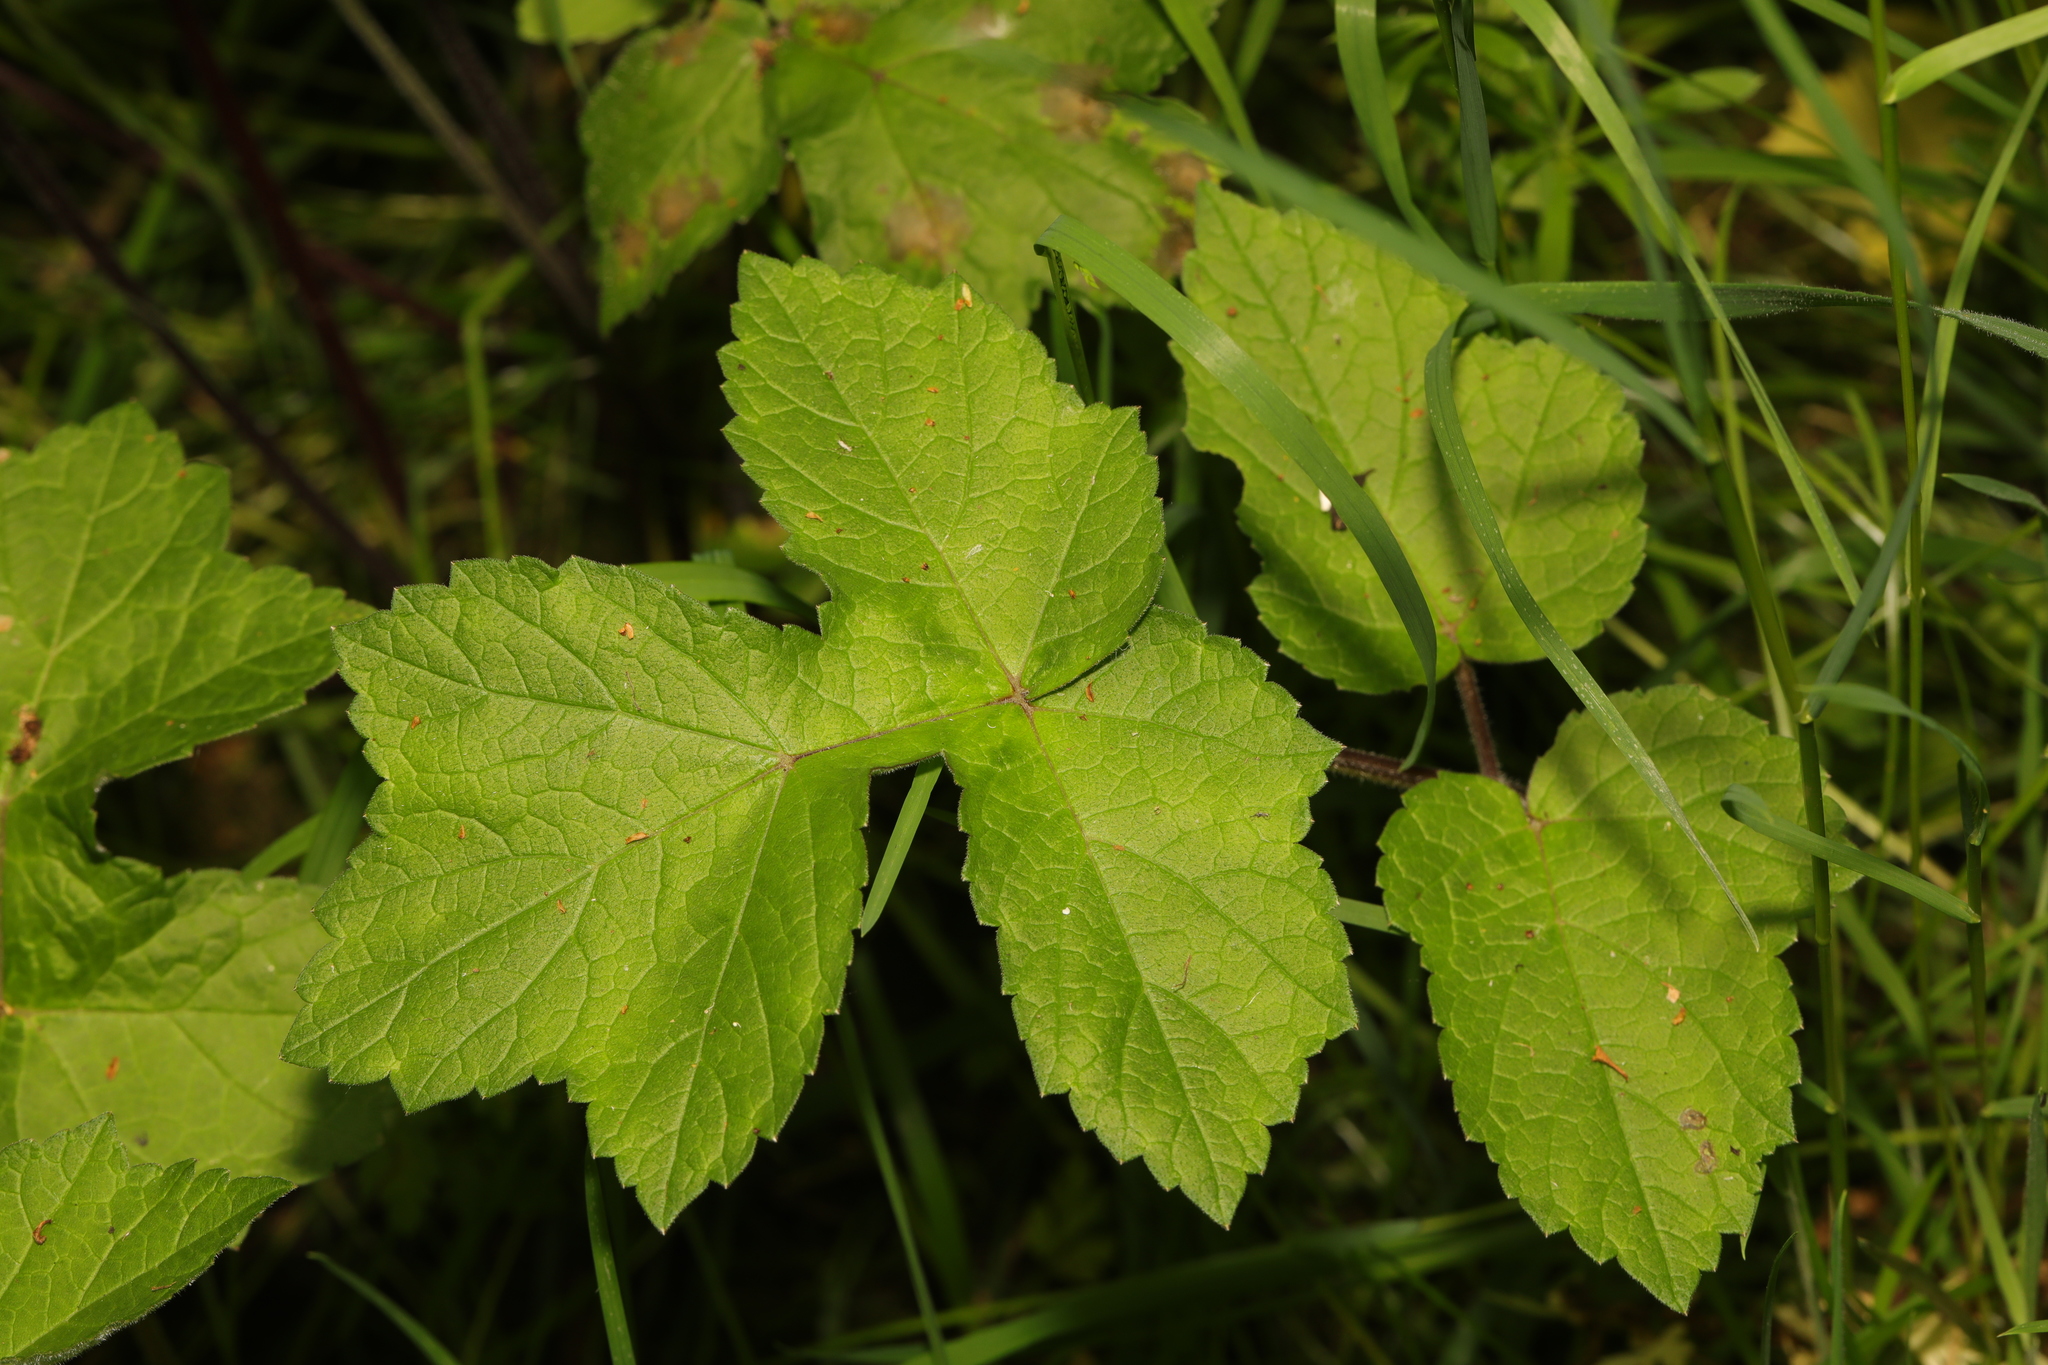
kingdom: Plantae
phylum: Tracheophyta
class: Magnoliopsida
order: Apiales
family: Apiaceae
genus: Heracleum
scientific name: Heracleum sphondylium
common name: Hogweed
